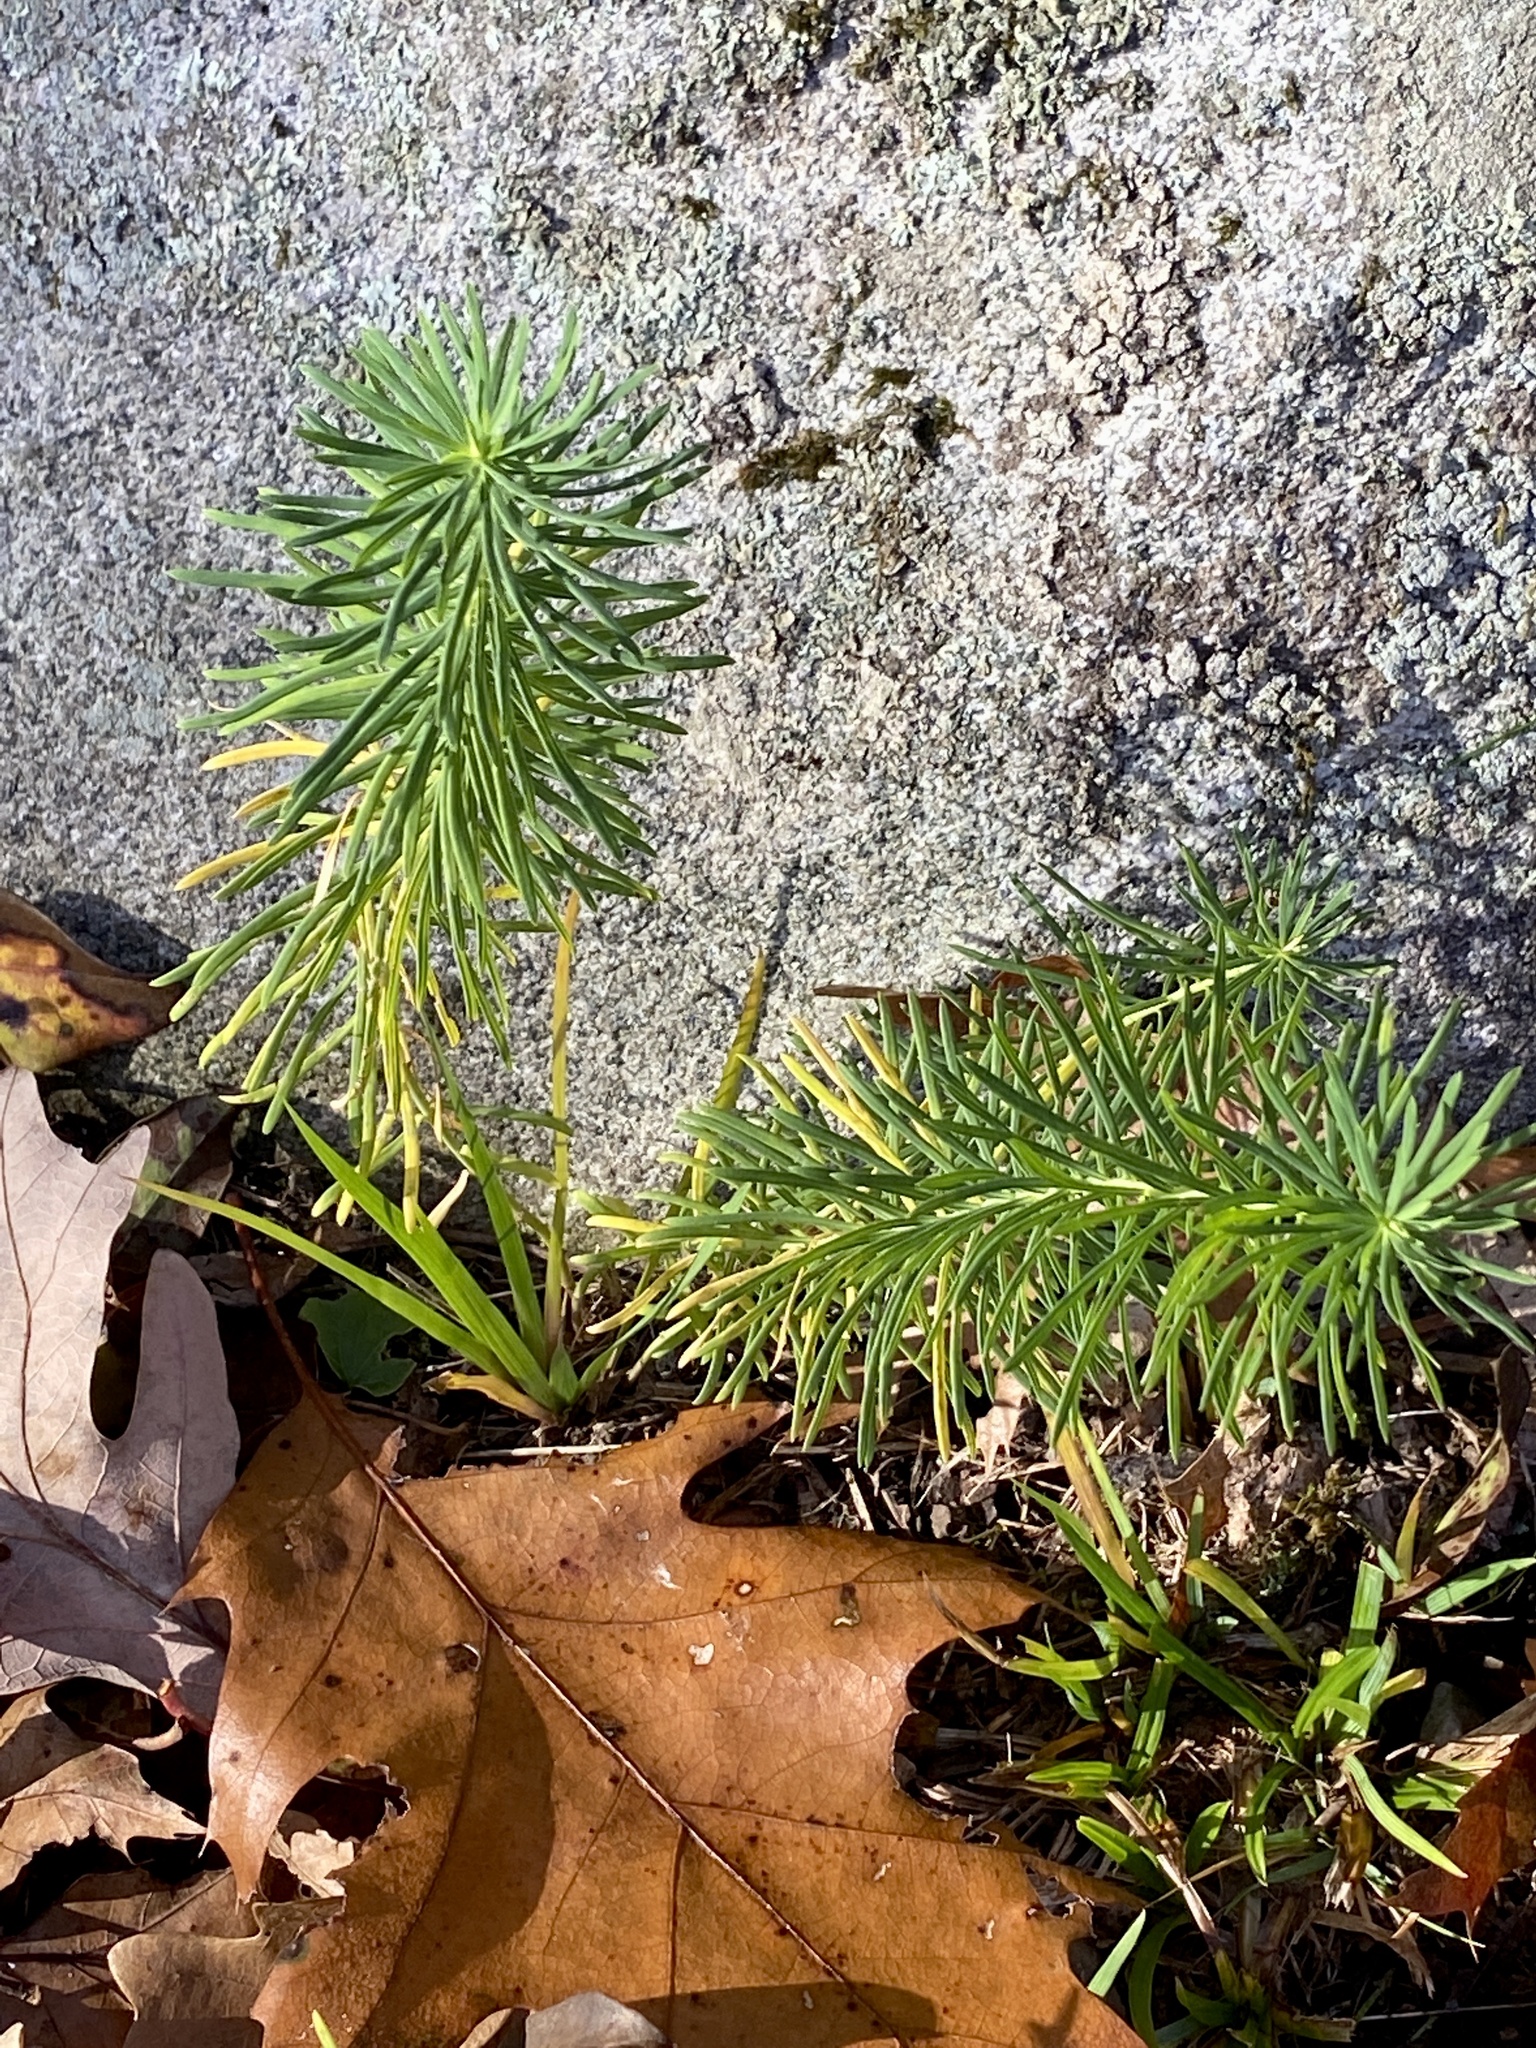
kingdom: Plantae
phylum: Tracheophyta
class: Magnoliopsida
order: Malpighiales
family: Euphorbiaceae
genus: Euphorbia
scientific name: Euphorbia cyparissias
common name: Cypress spurge
